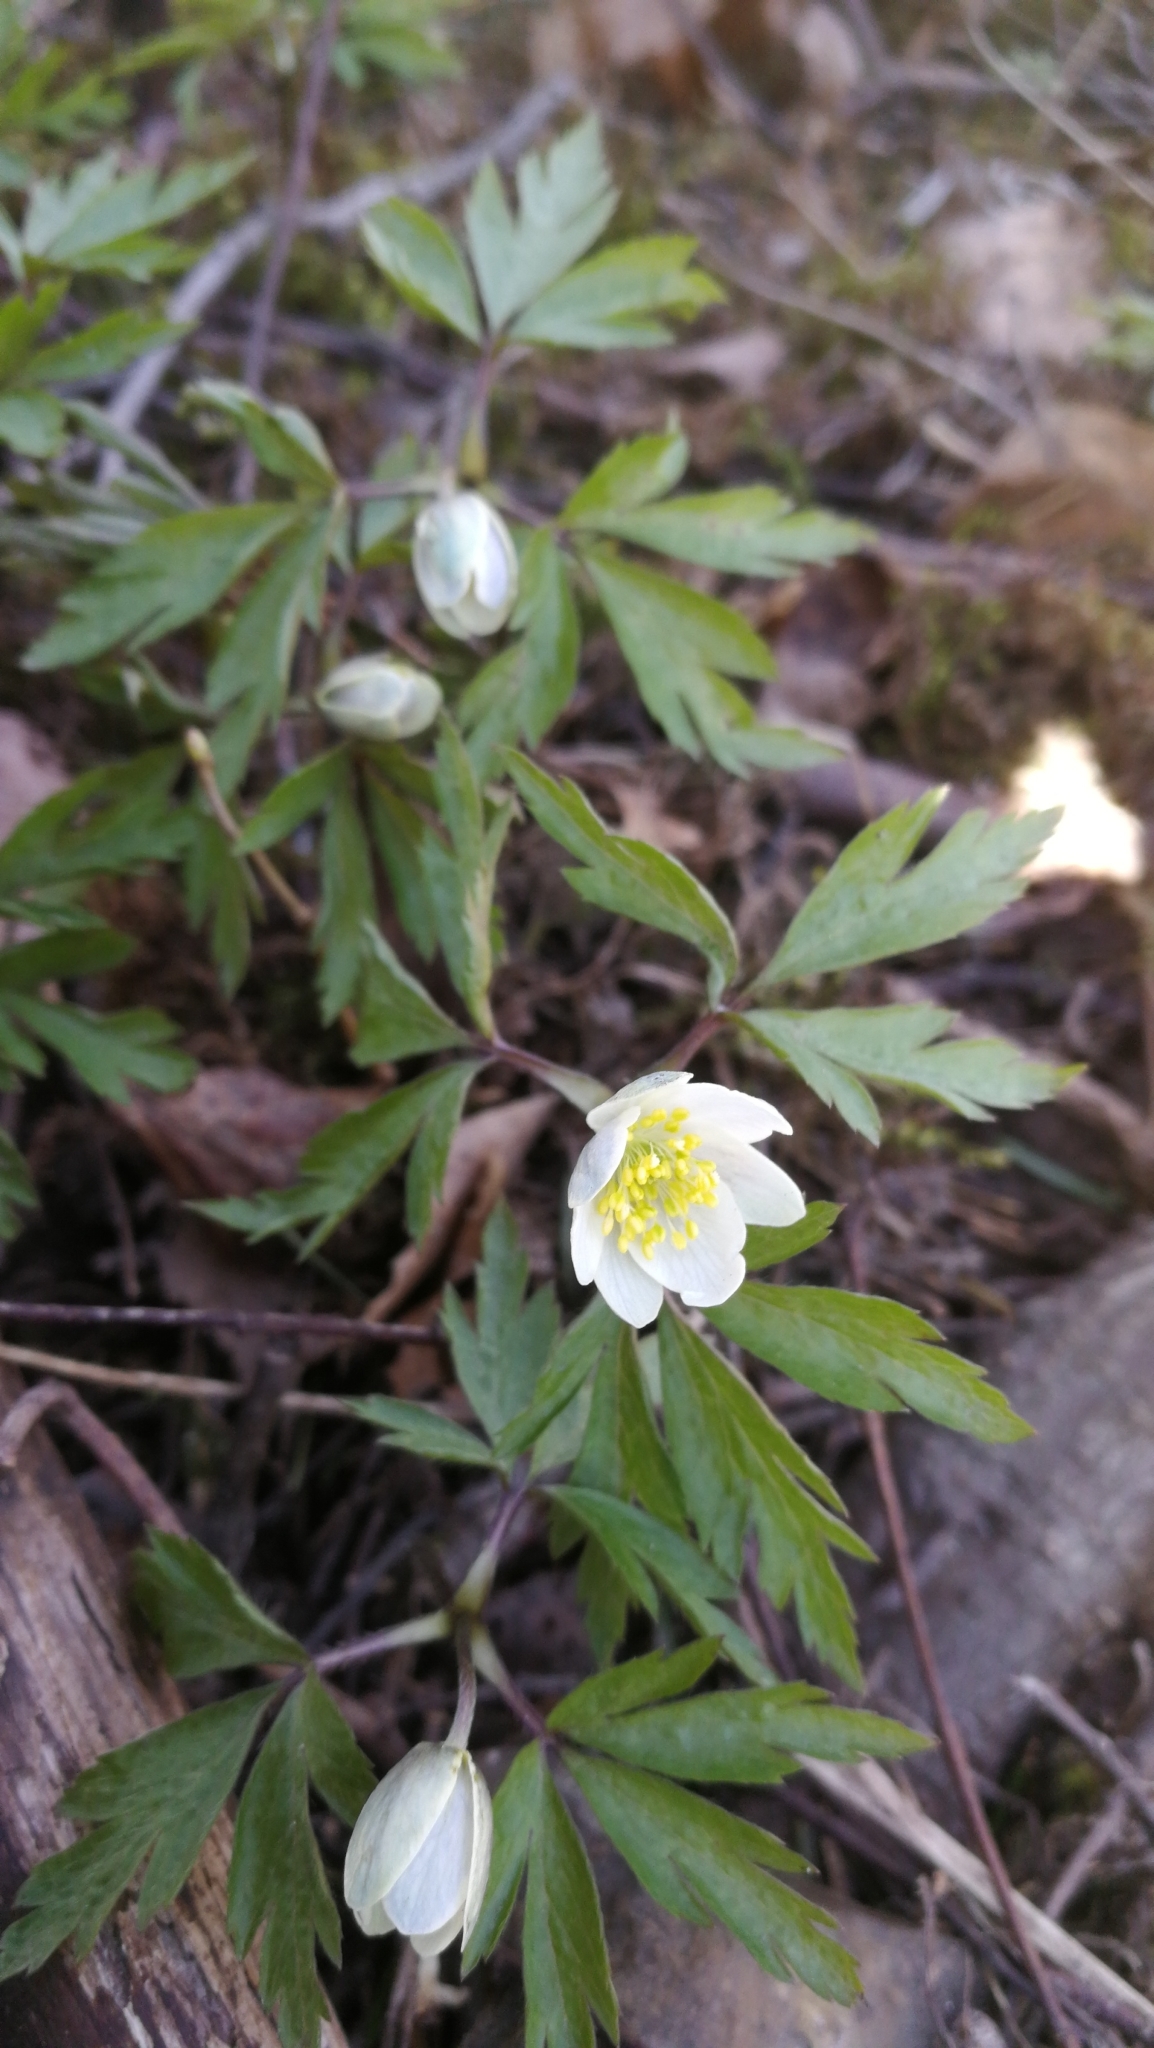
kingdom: Plantae
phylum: Tracheophyta
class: Magnoliopsida
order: Ranunculales
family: Ranunculaceae
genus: Anemone
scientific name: Anemone nemorosa
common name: Wood anemone
